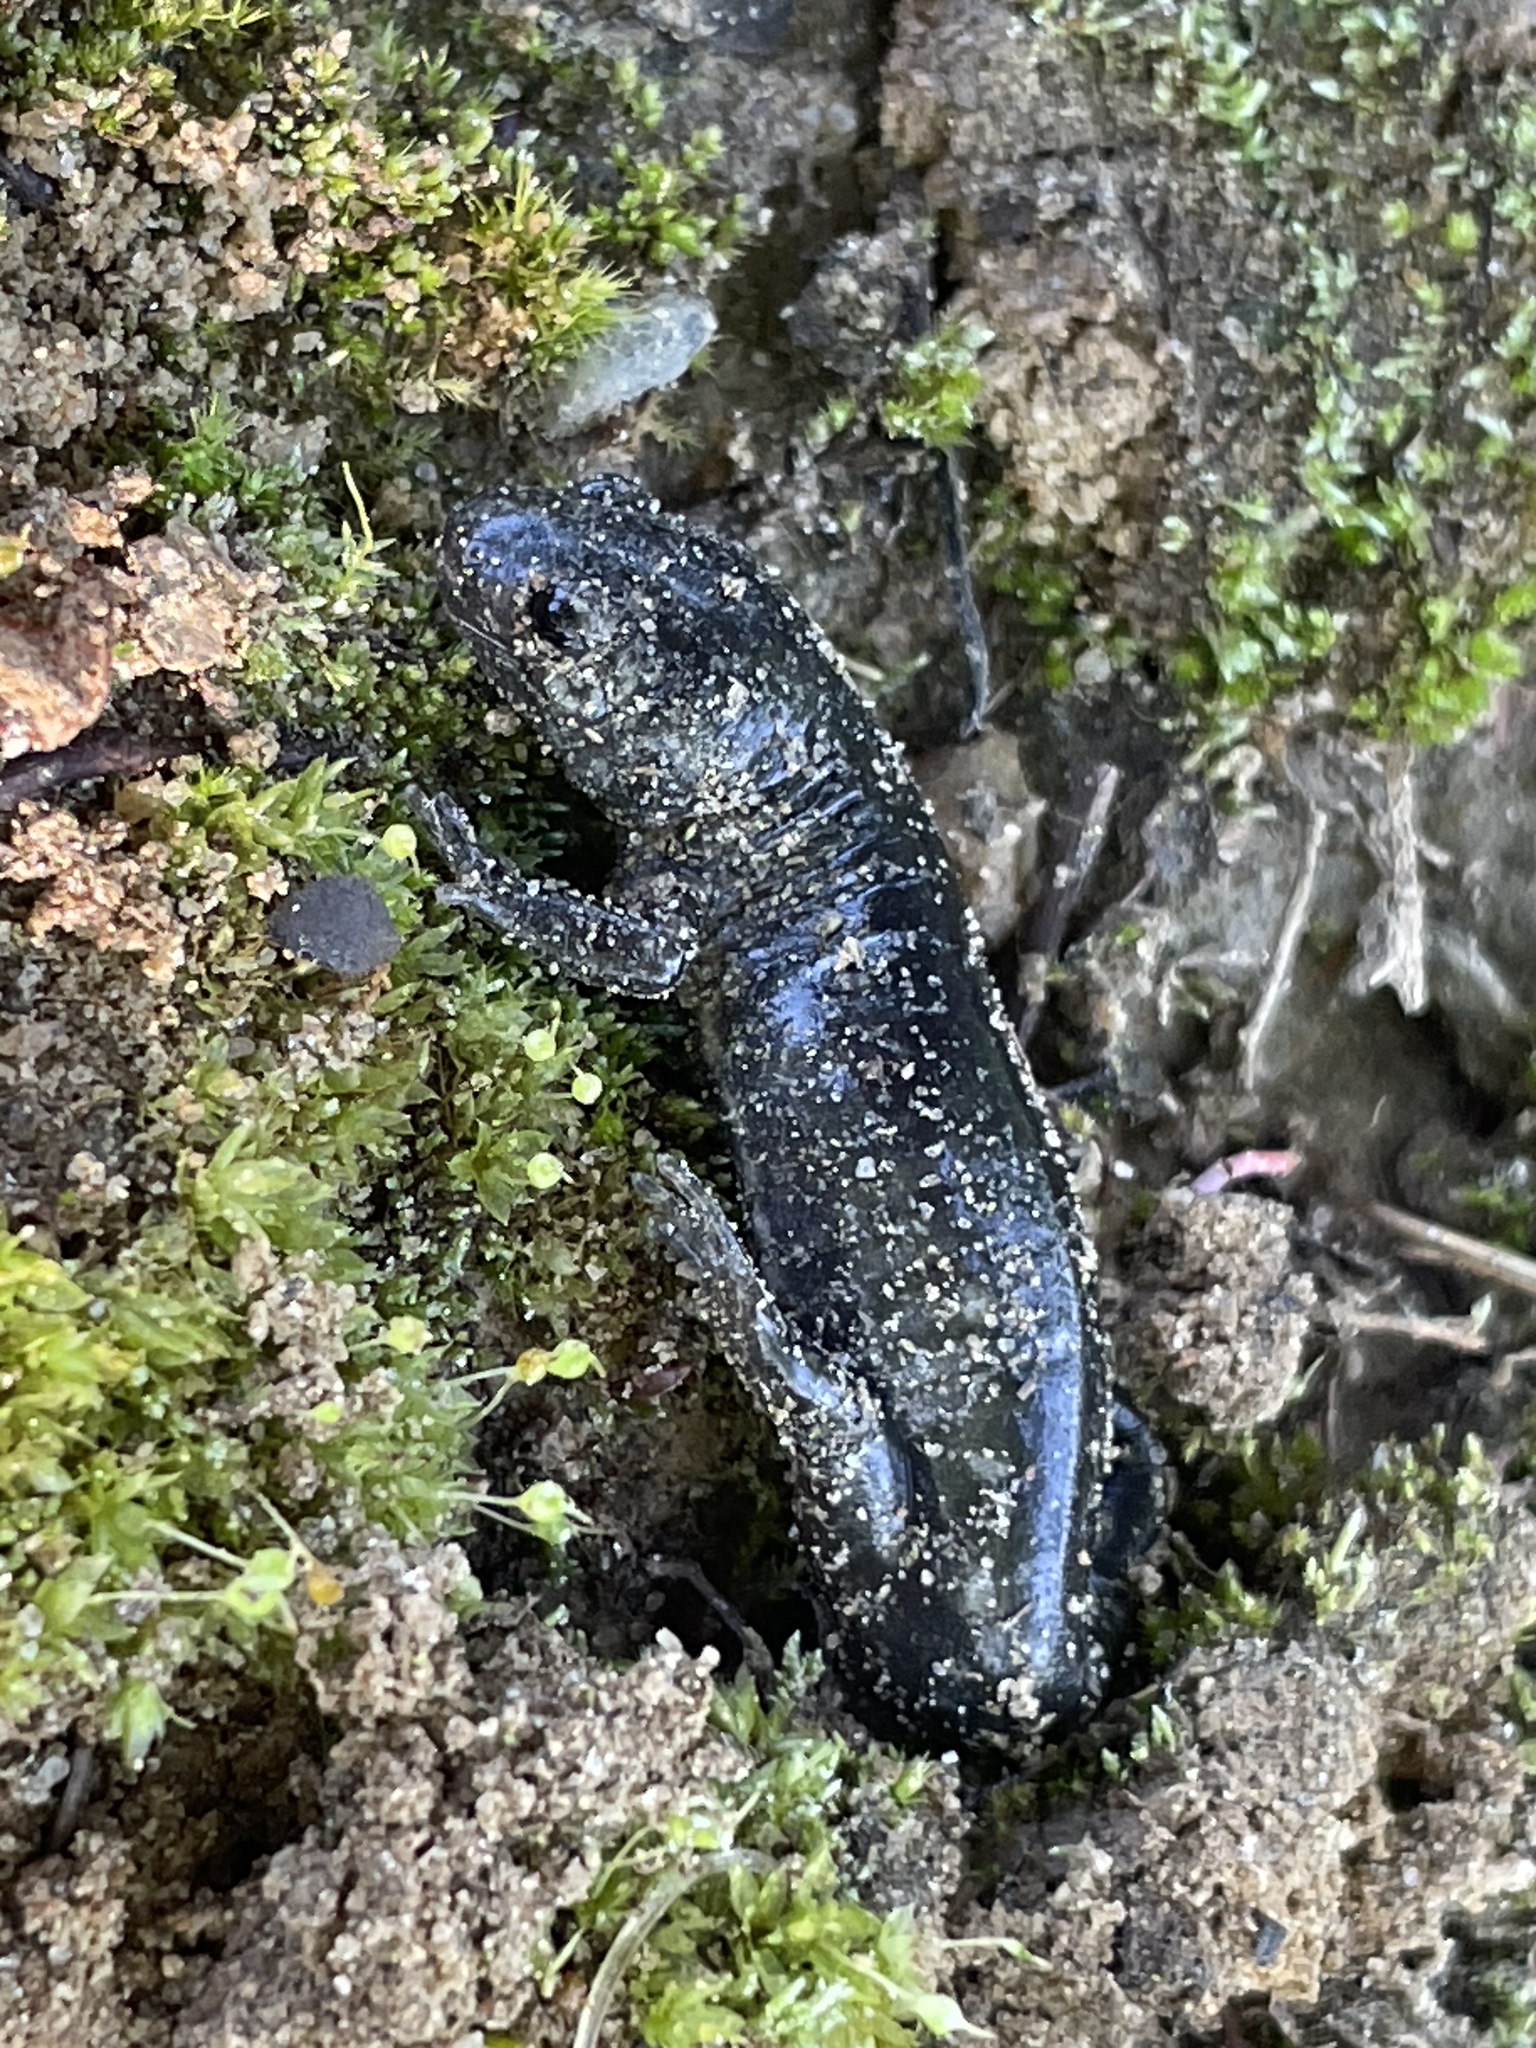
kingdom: Animalia
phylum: Chordata
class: Amphibia
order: Caudata
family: Ambystomatidae
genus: Ambystoma
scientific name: Ambystoma opacum
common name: Marbled salamander
